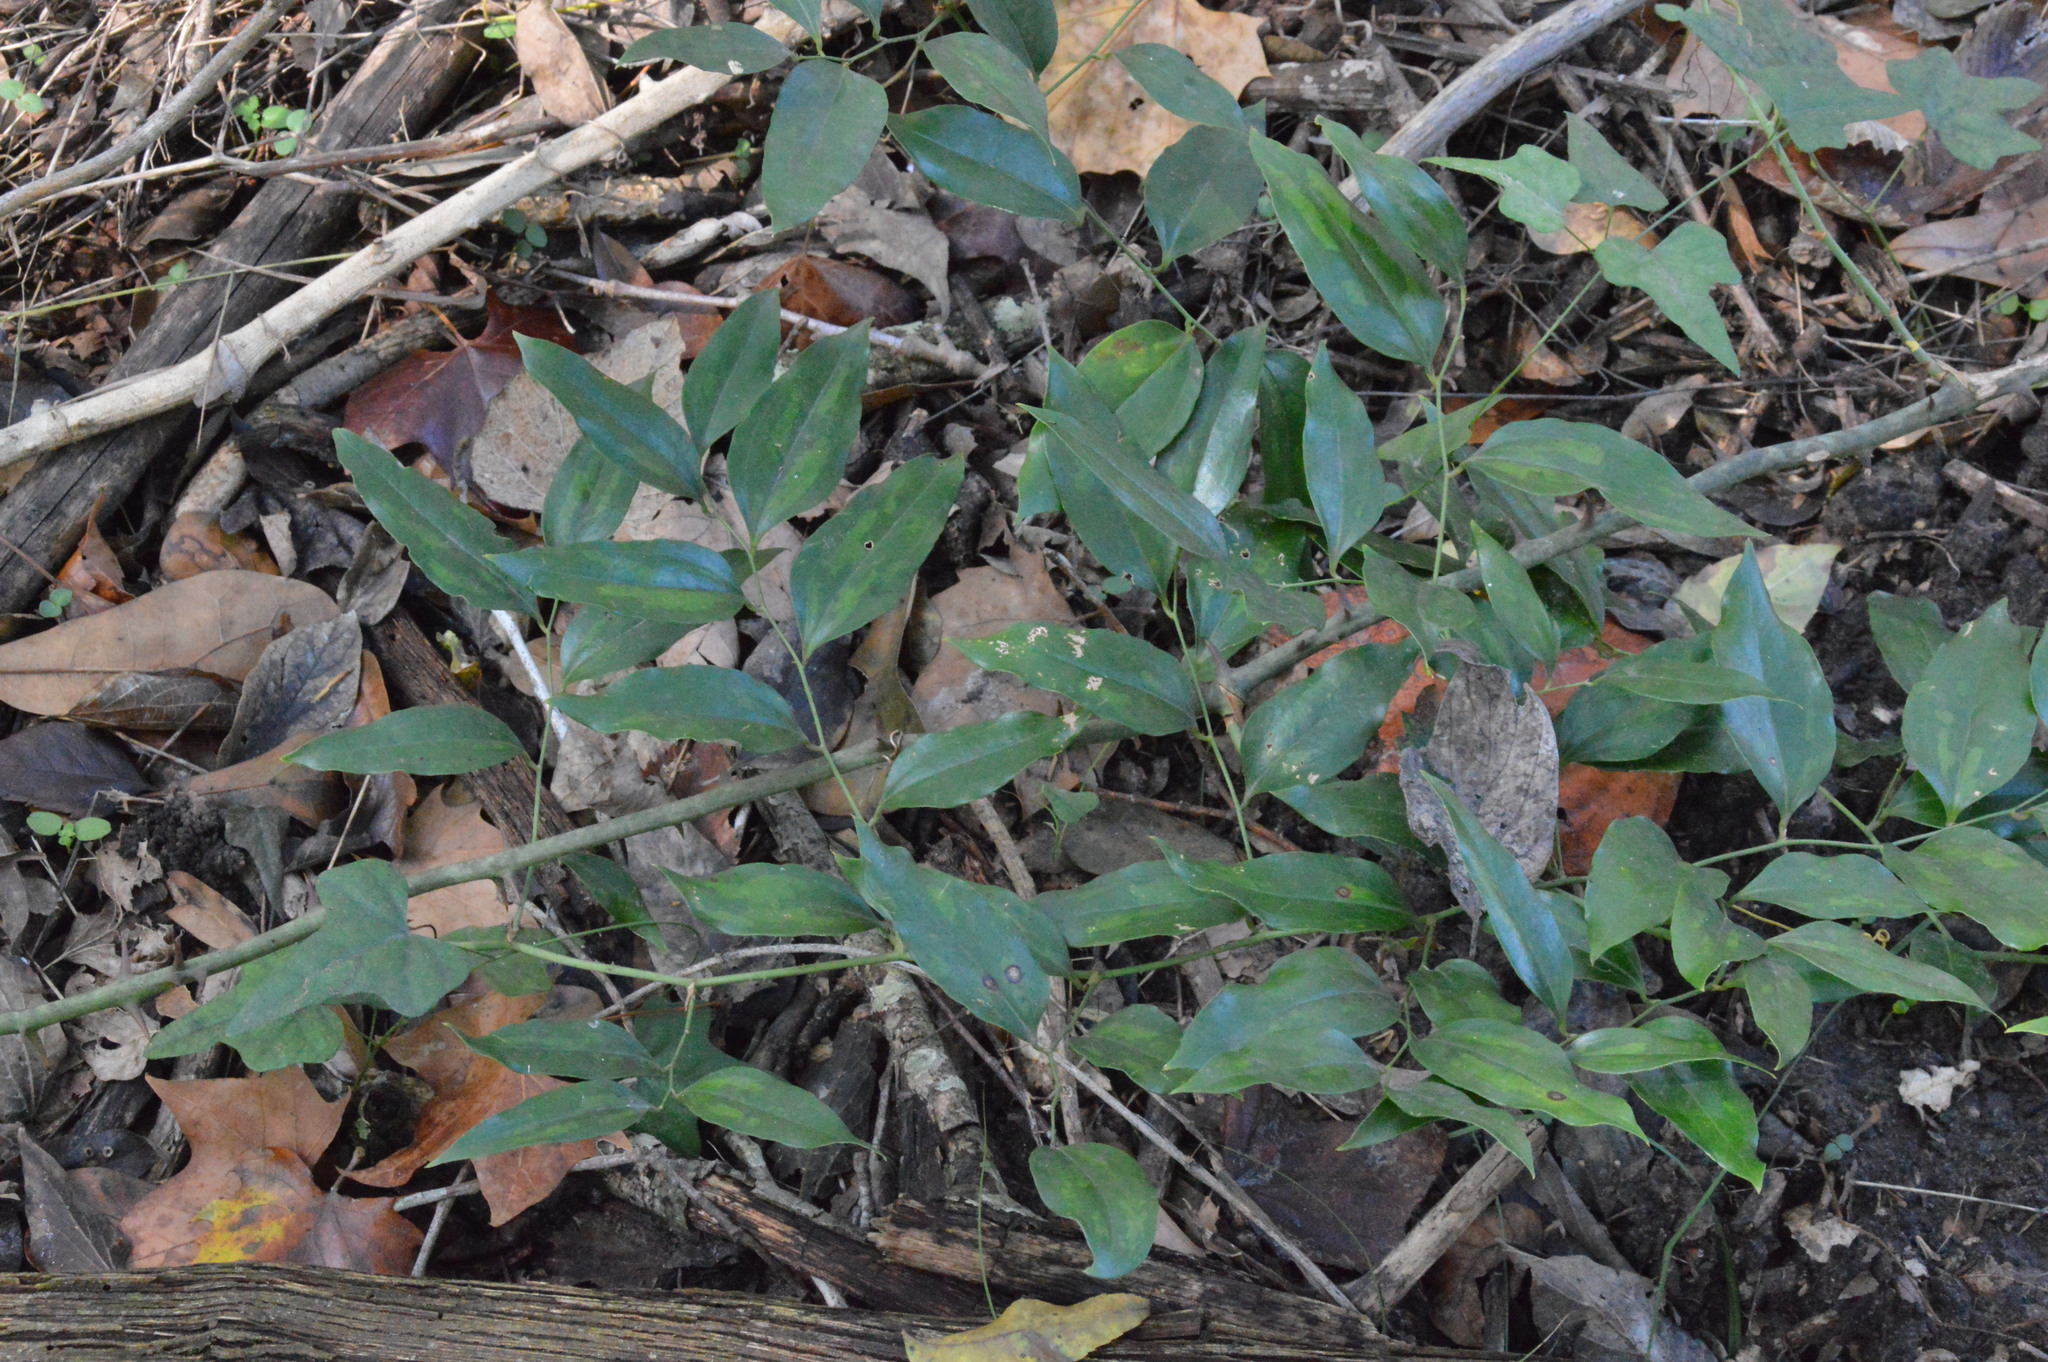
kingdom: Plantae
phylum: Tracheophyta
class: Liliopsida
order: Liliales
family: Smilacaceae
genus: Smilax
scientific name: Smilax maritima
